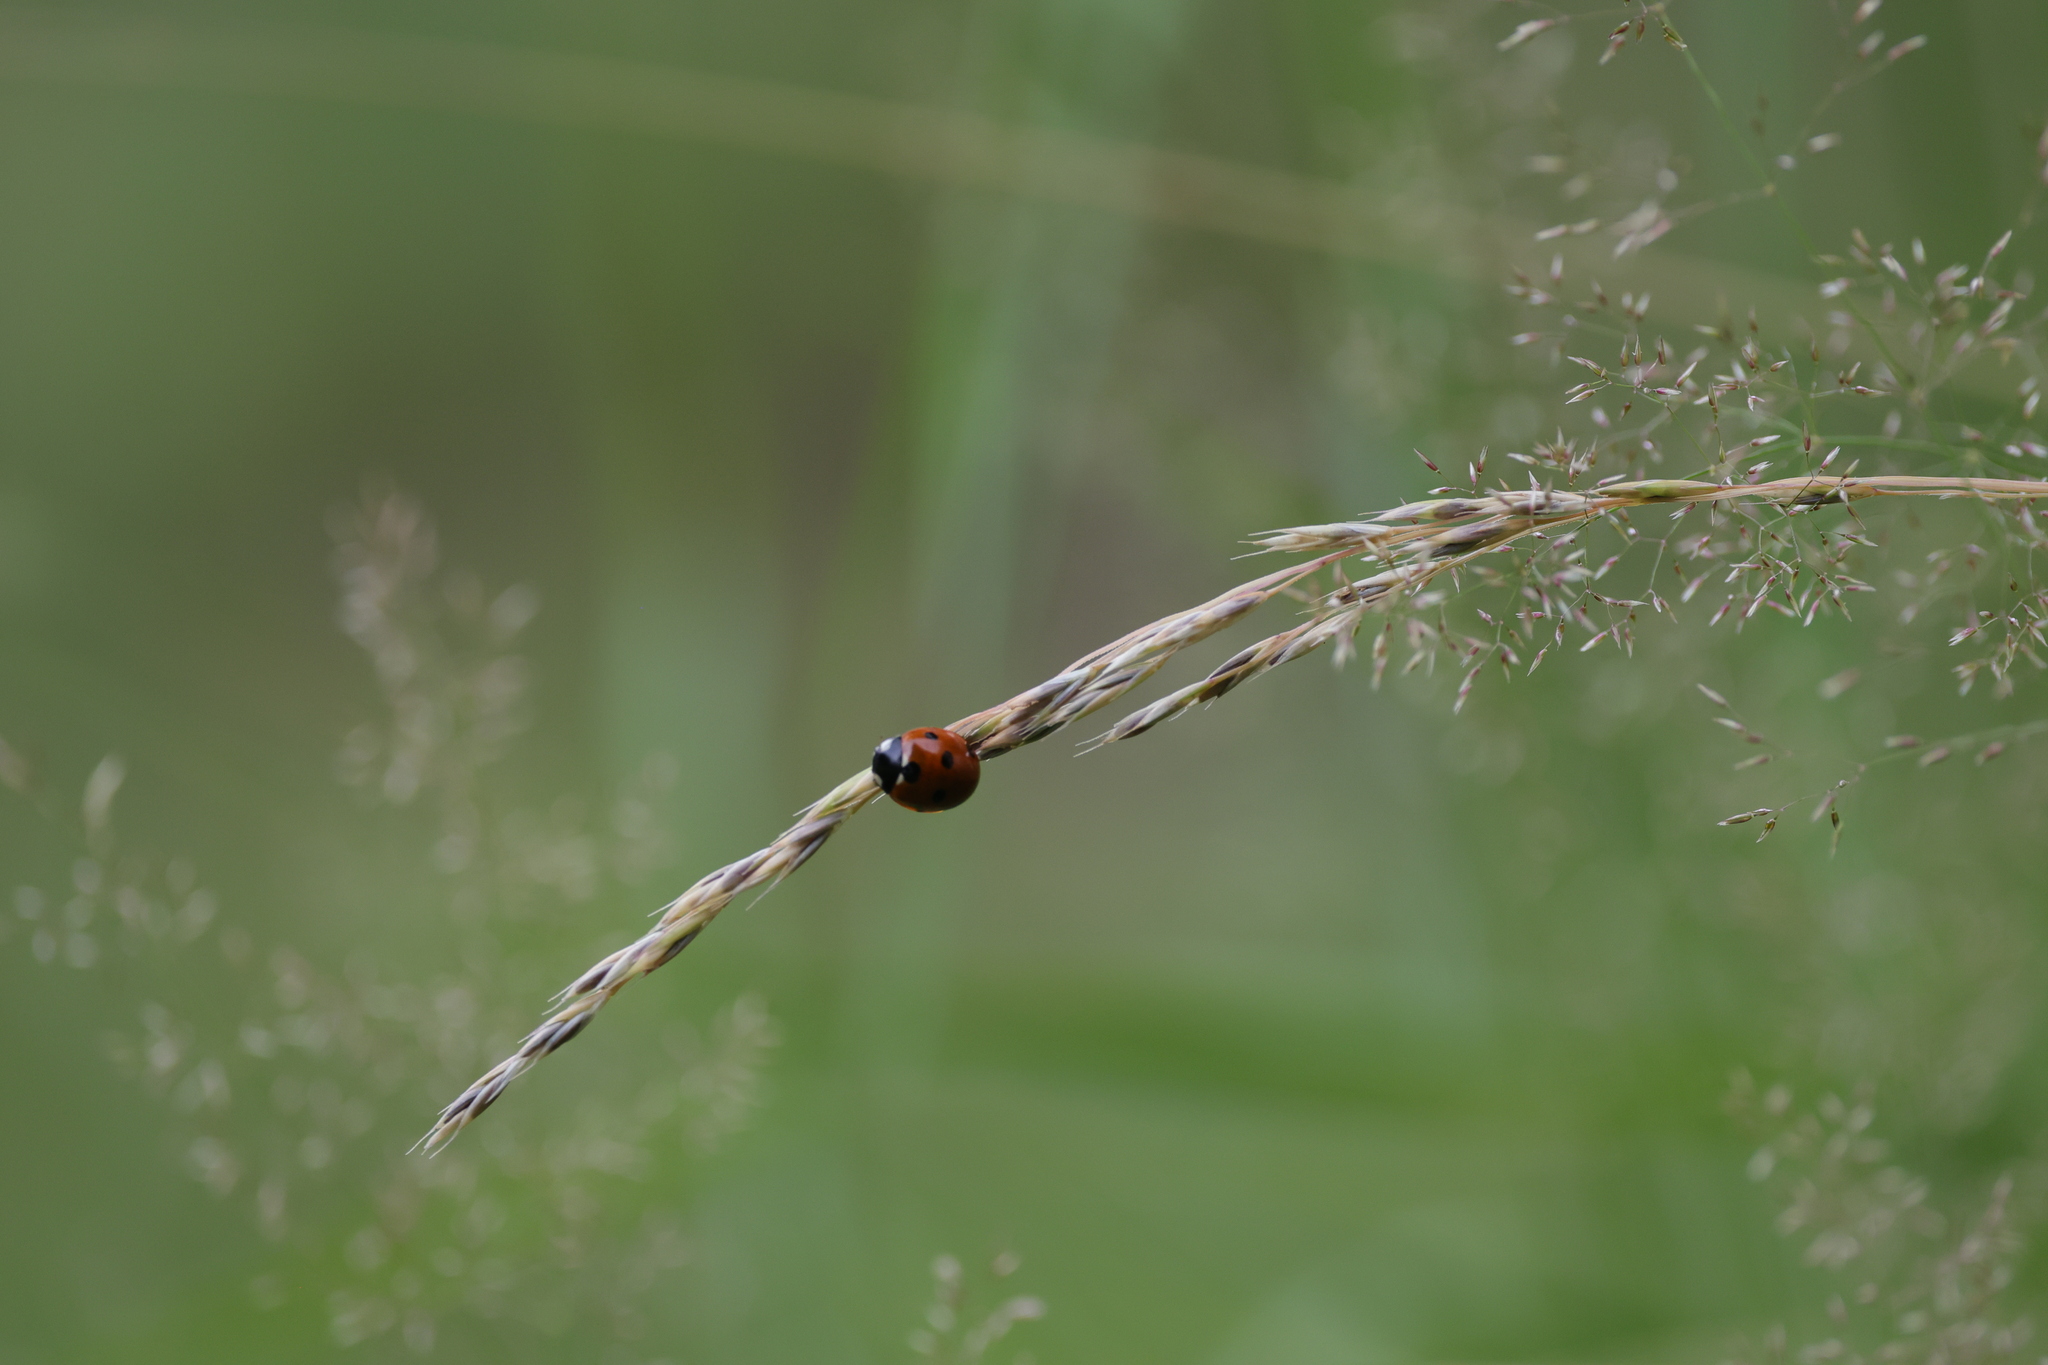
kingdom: Animalia
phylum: Arthropoda
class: Insecta
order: Coleoptera
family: Coccinellidae
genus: Coccinella
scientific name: Coccinella septempunctata
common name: Sevenspotted lady beetle
